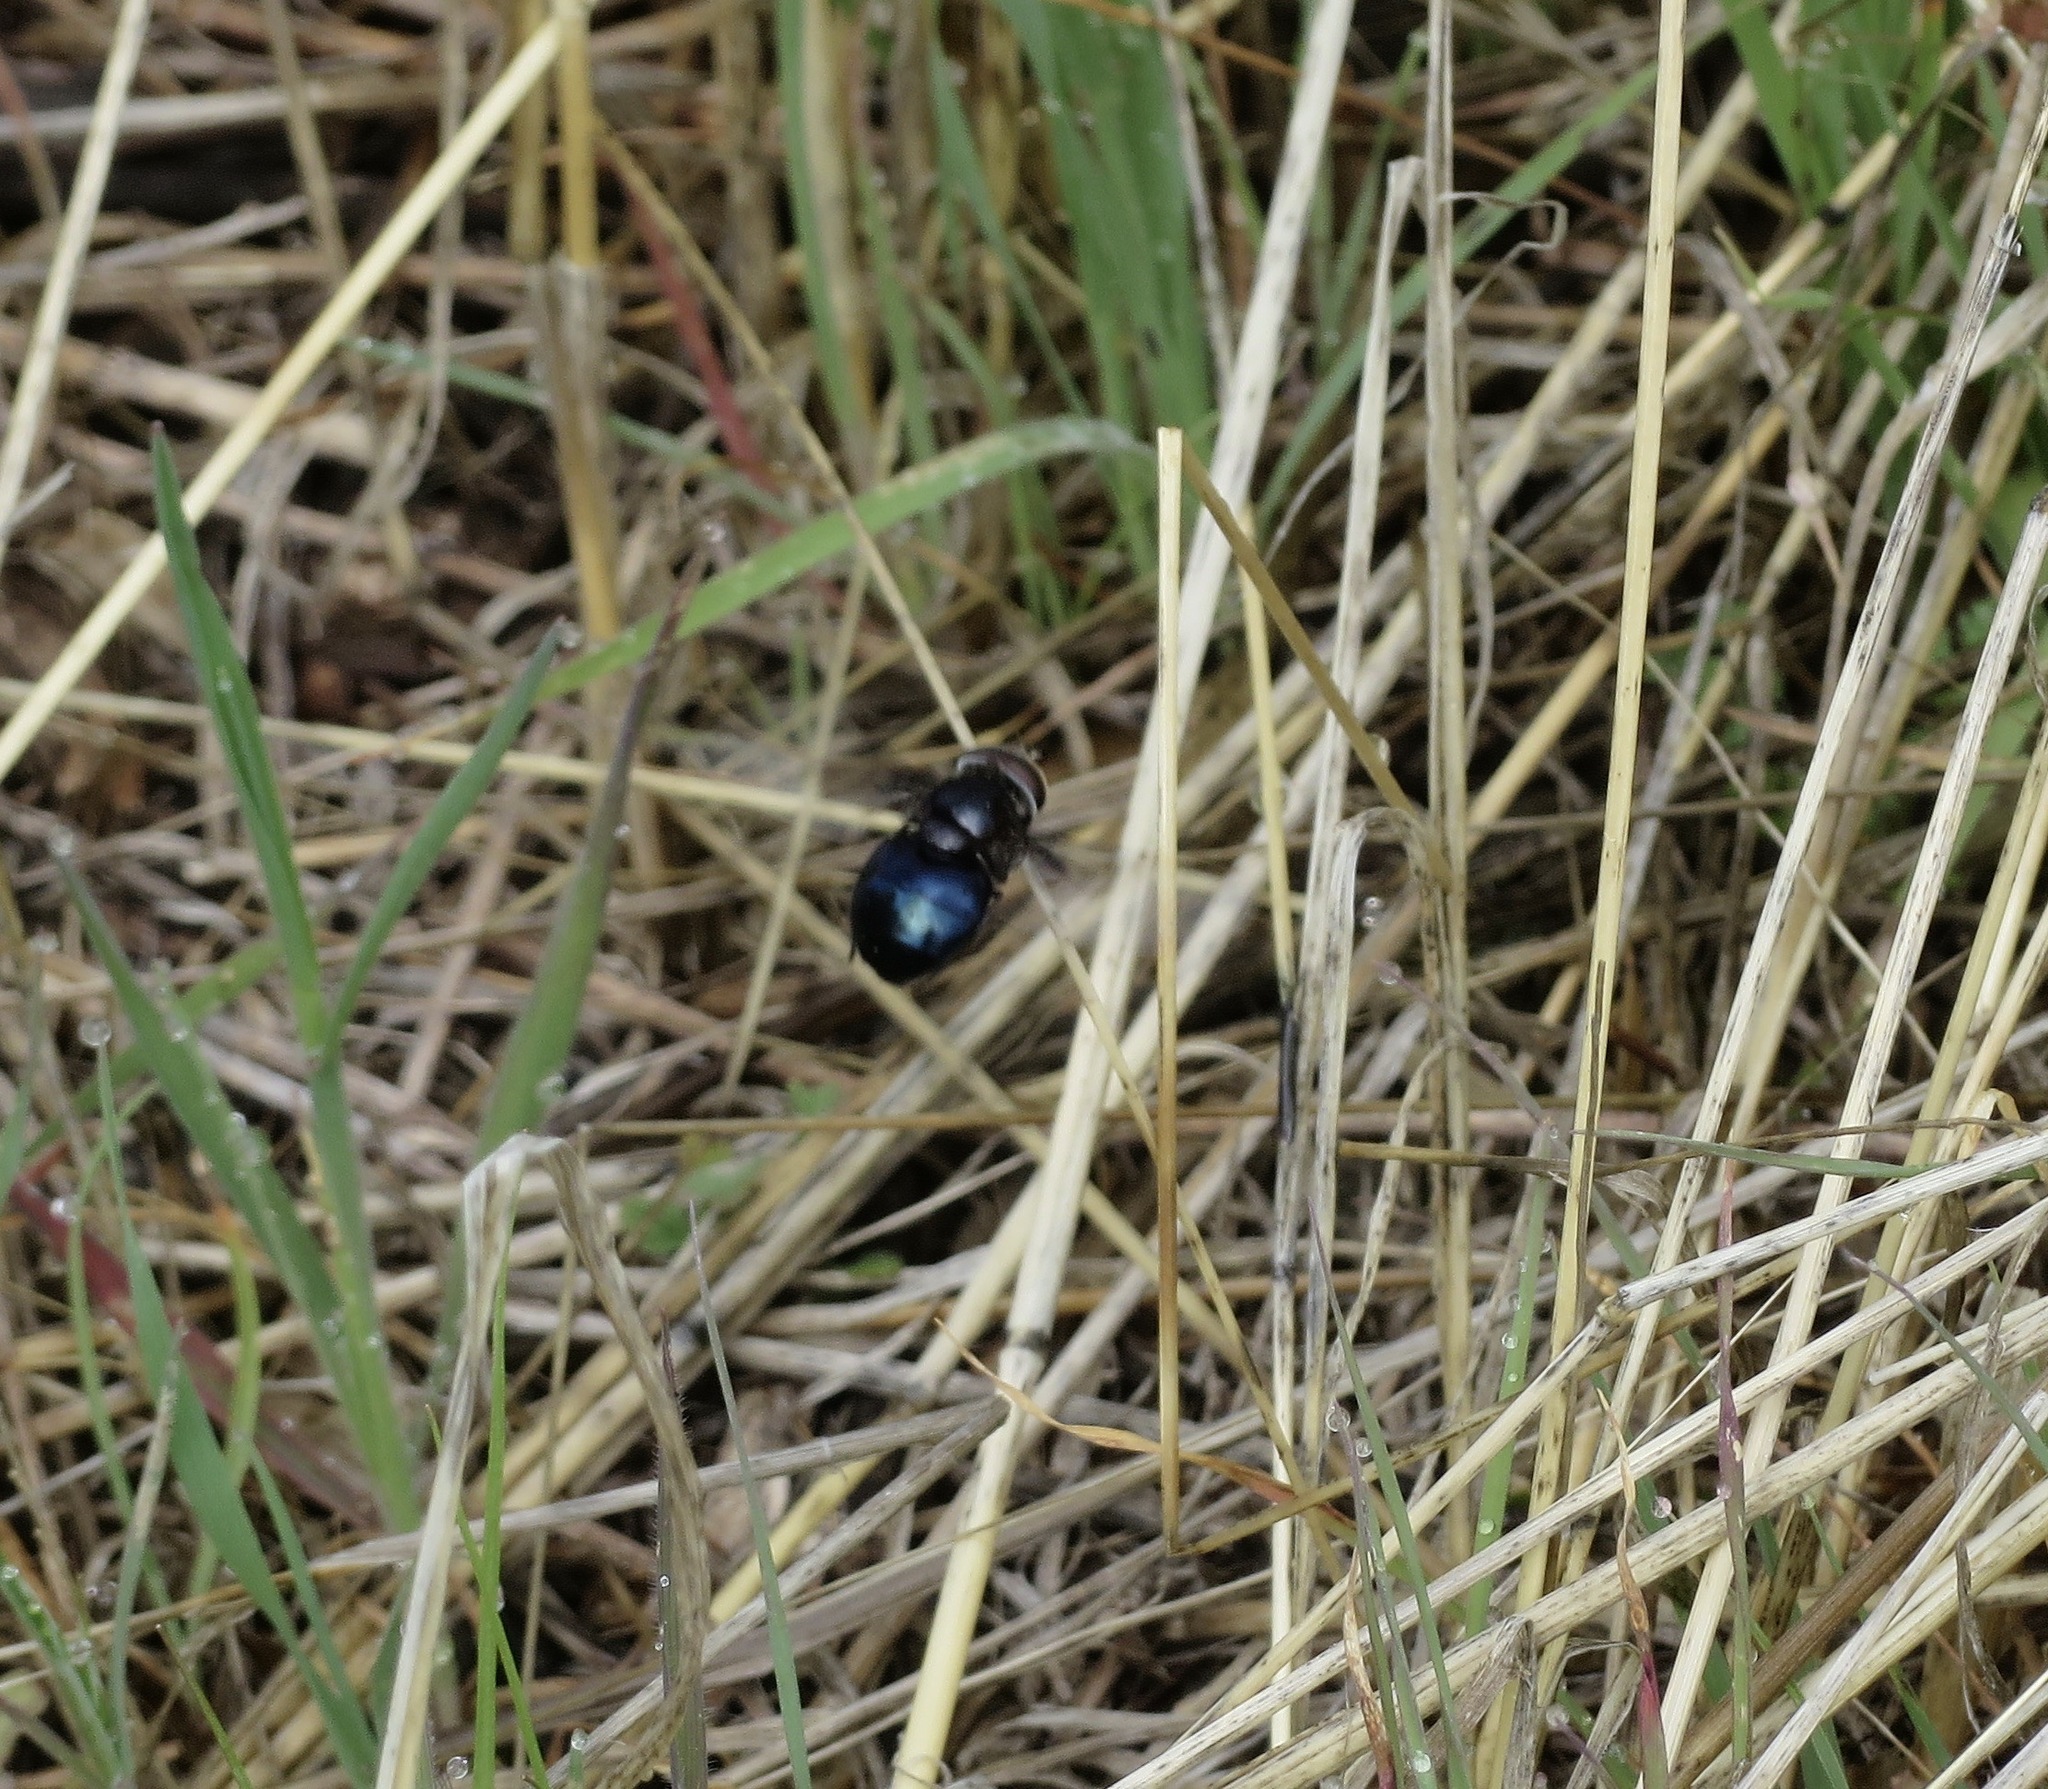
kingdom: Animalia
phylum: Arthropoda
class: Insecta
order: Diptera
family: Syrphidae
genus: Copestylum
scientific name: Copestylum mexicanum
